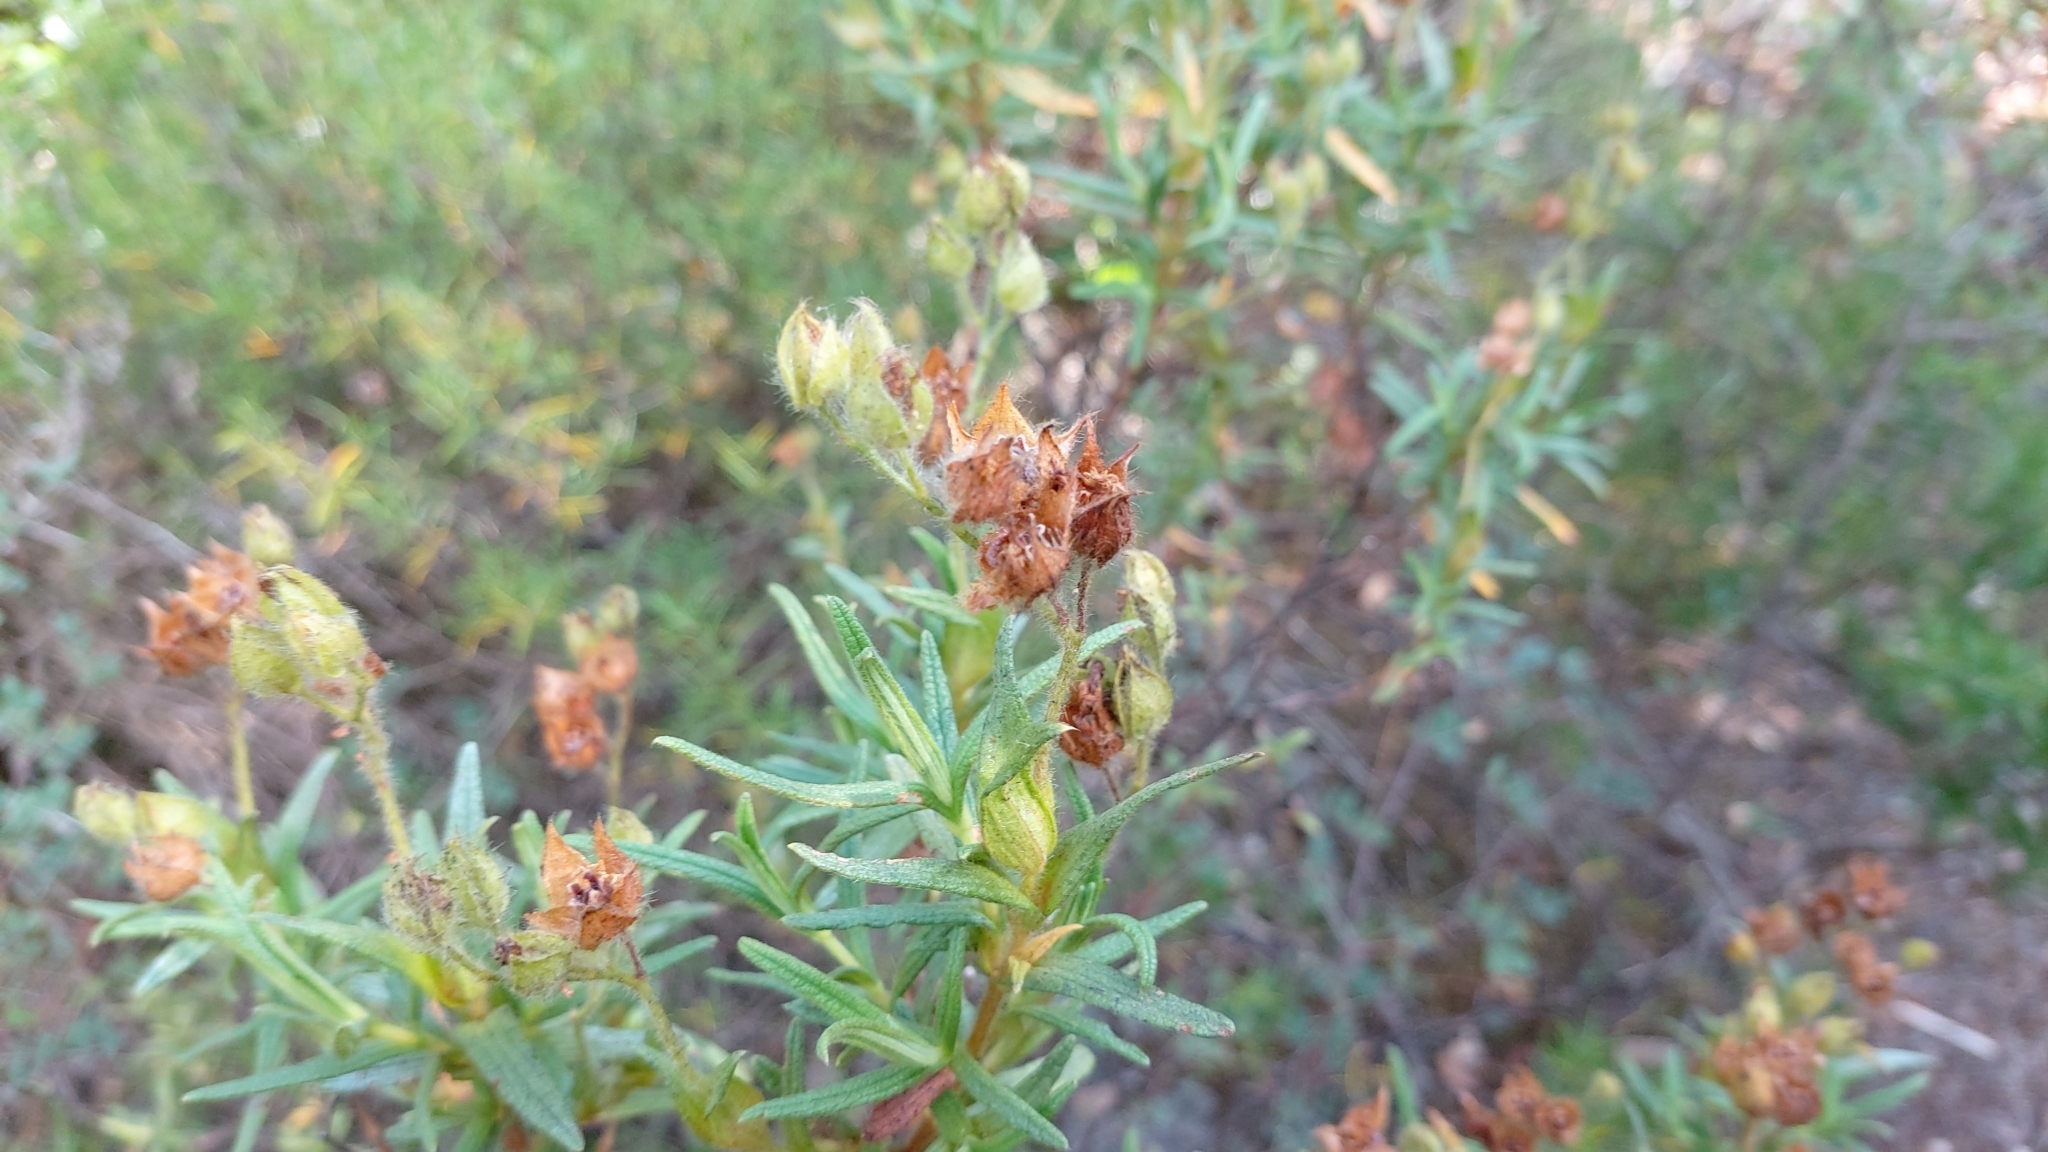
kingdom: Plantae
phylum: Tracheophyta
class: Magnoliopsida
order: Malvales
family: Cistaceae
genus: Cistus
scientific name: Cistus monspeliensis
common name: Montpelier cistus
